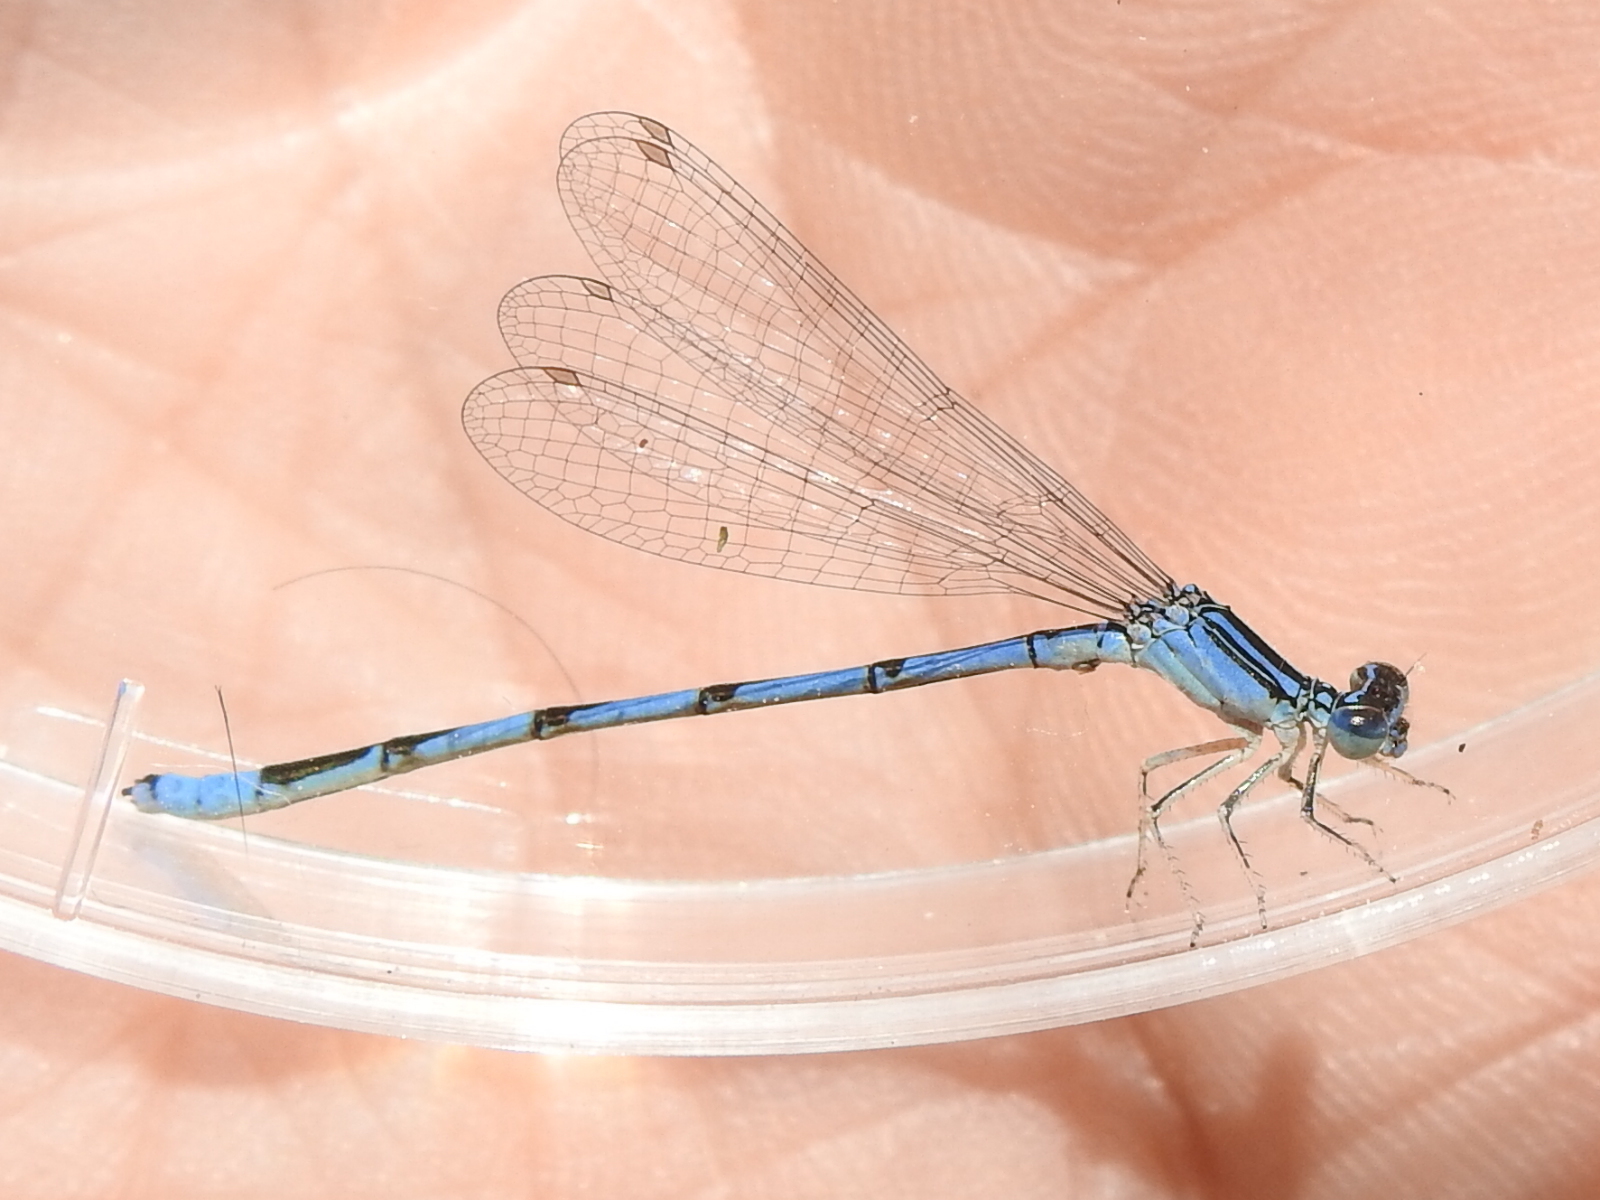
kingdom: Animalia
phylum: Arthropoda
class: Insecta
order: Odonata
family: Coenagrionidae
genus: Enallagma
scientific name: Enallagma basidens
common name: Double-striped bluet
